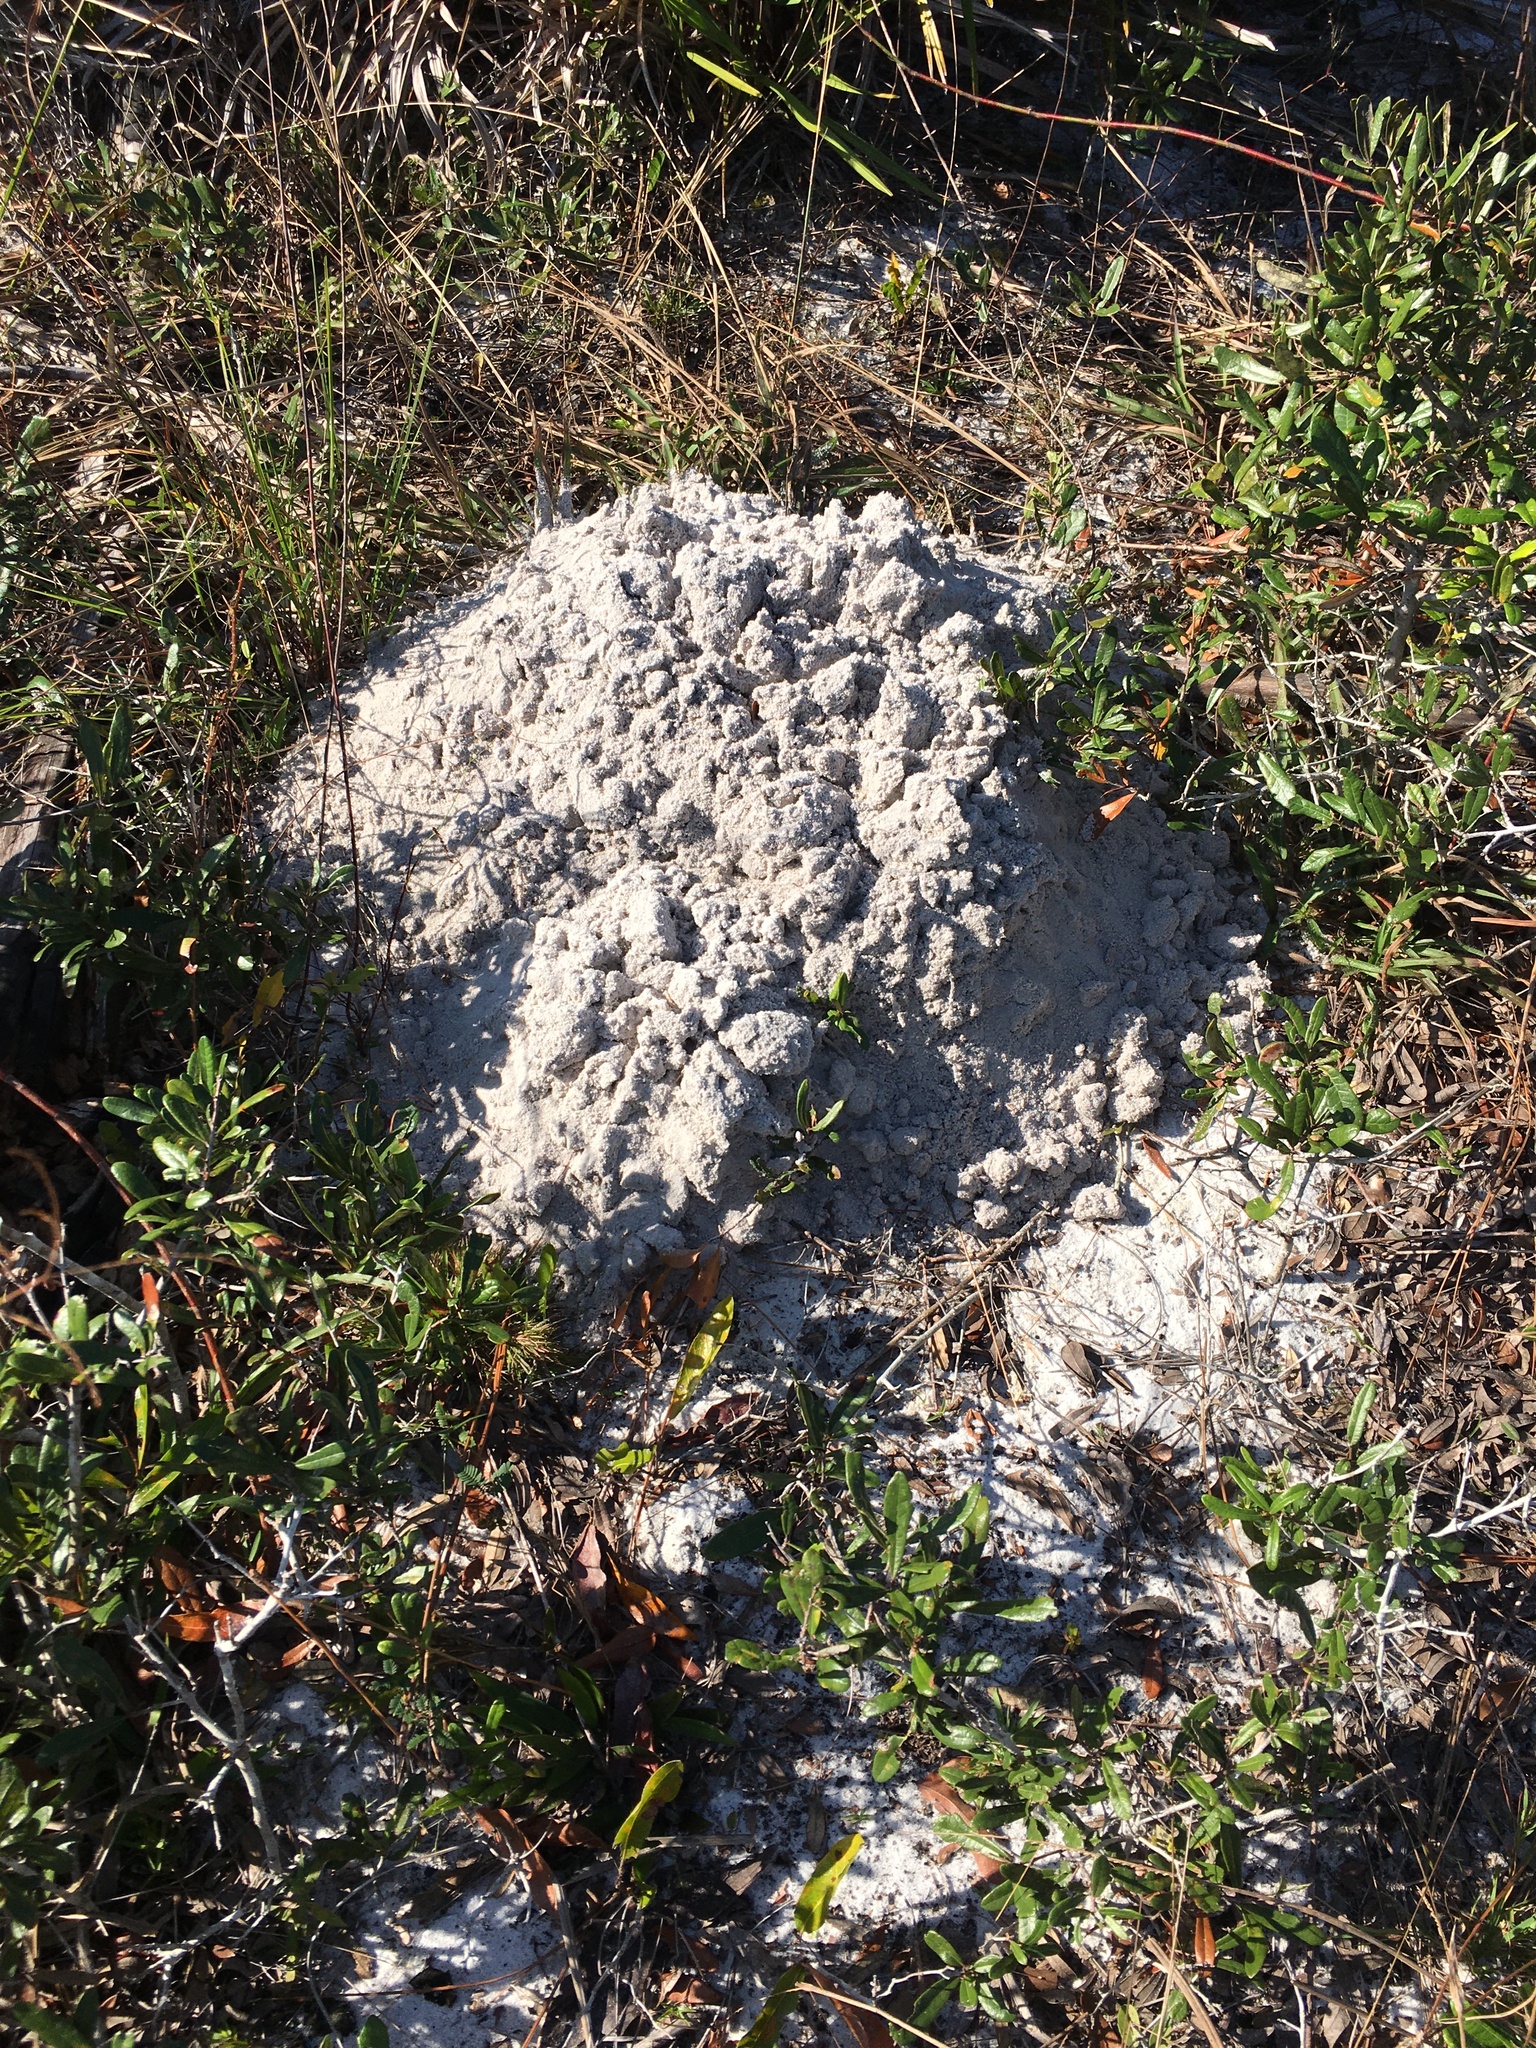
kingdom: Animalia
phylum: Chordata
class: Mammalia
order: Rodentia
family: Geomyidae
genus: Geomys
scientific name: Geomys pinetis
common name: Southeastern pocket gopher
